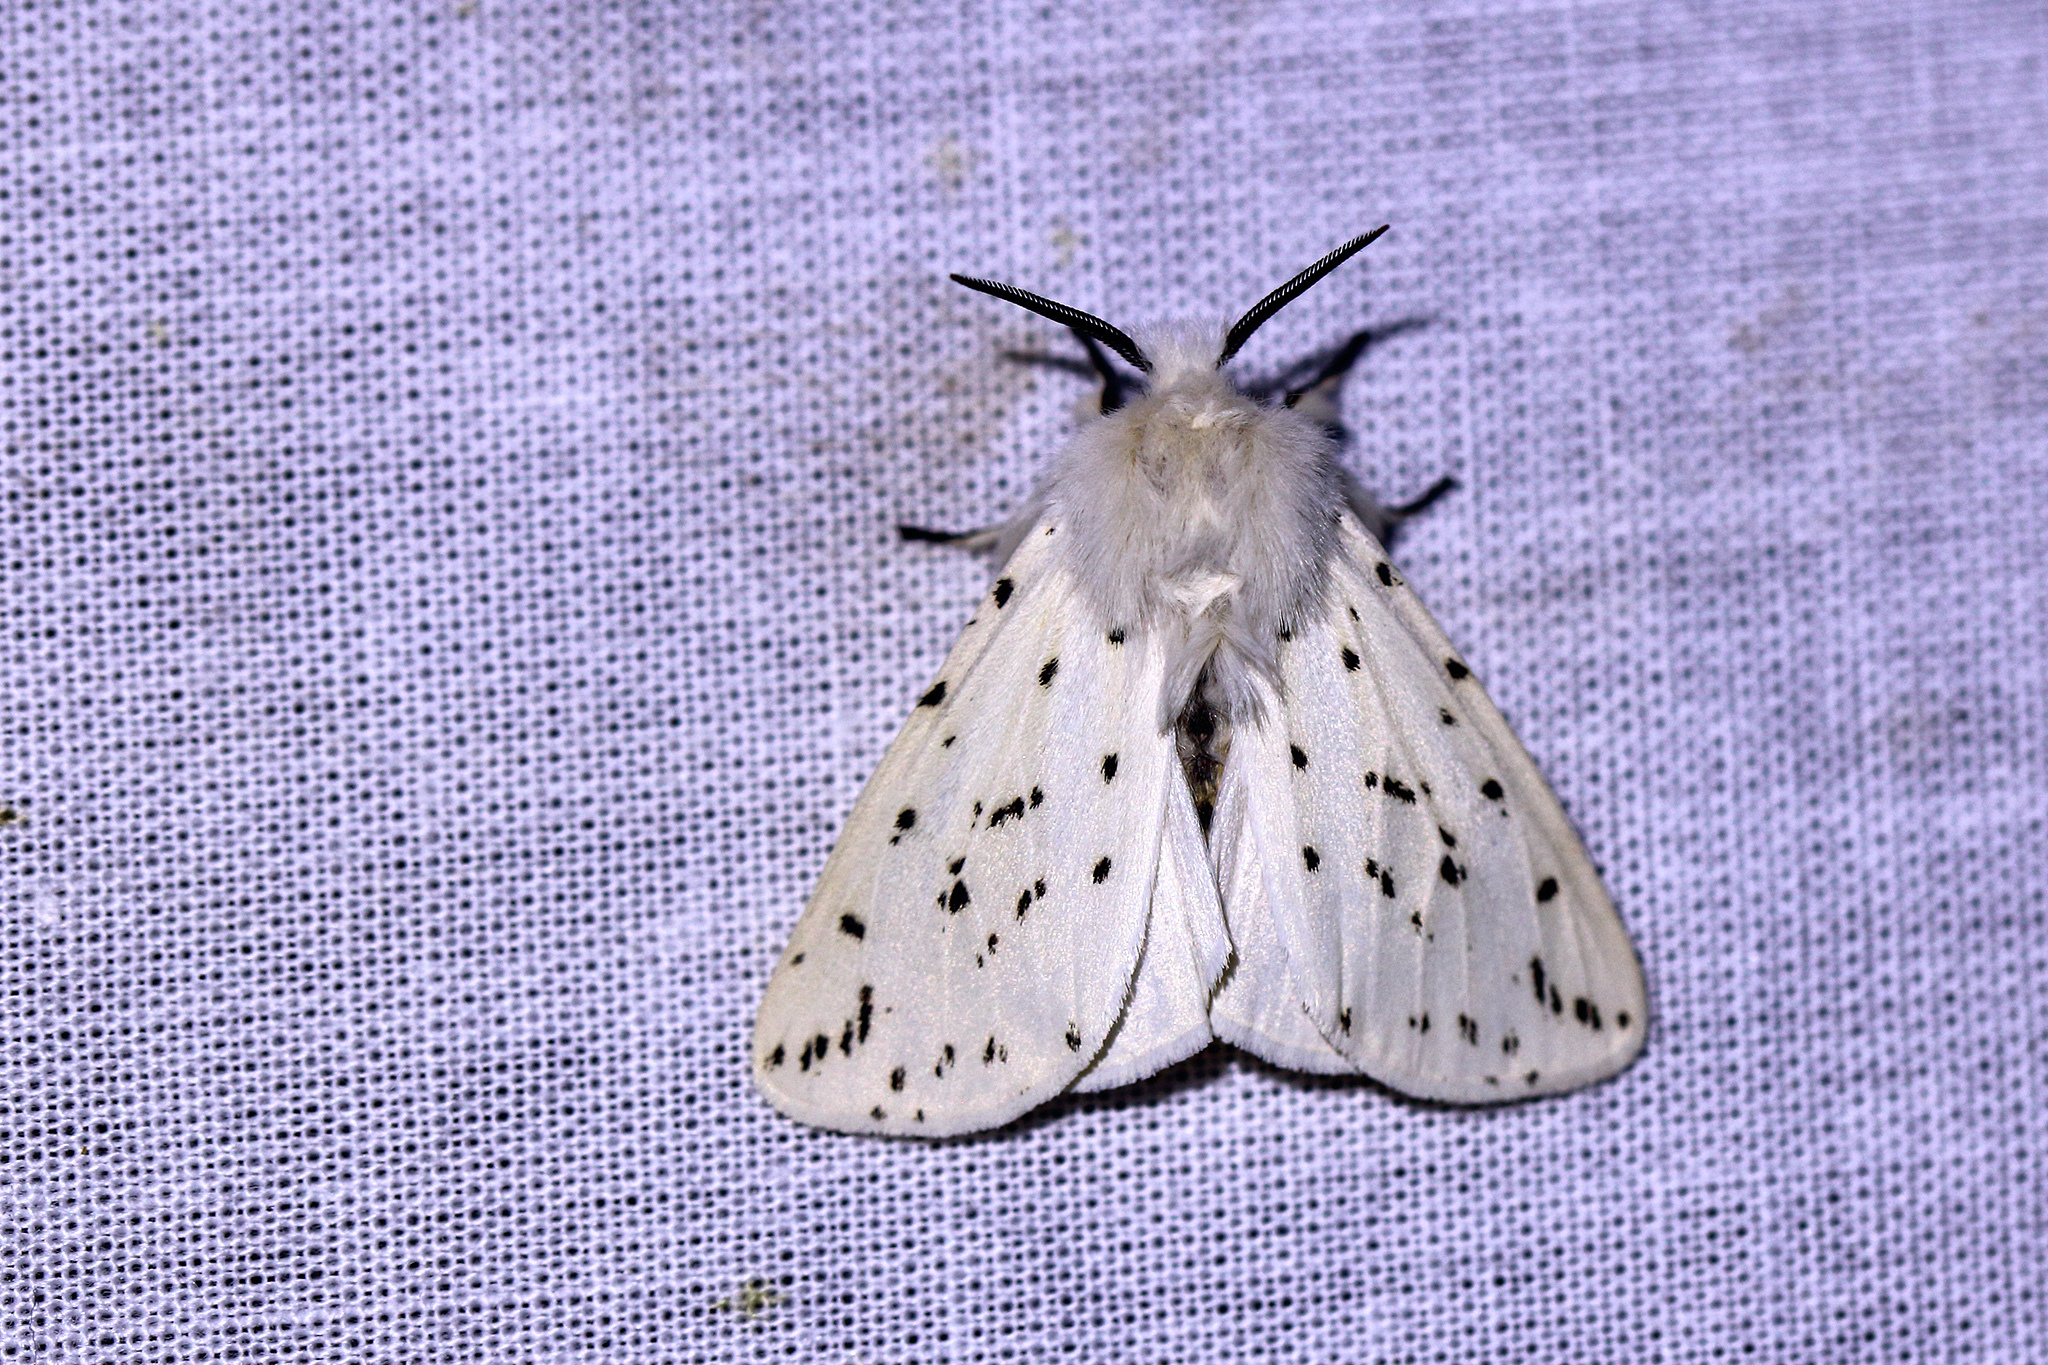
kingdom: Animalia
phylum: Arthropoda
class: Insecta
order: Lepidoptera
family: Erebidae
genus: Spilosoma
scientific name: Spilosoma lubricipeda
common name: White ermine
